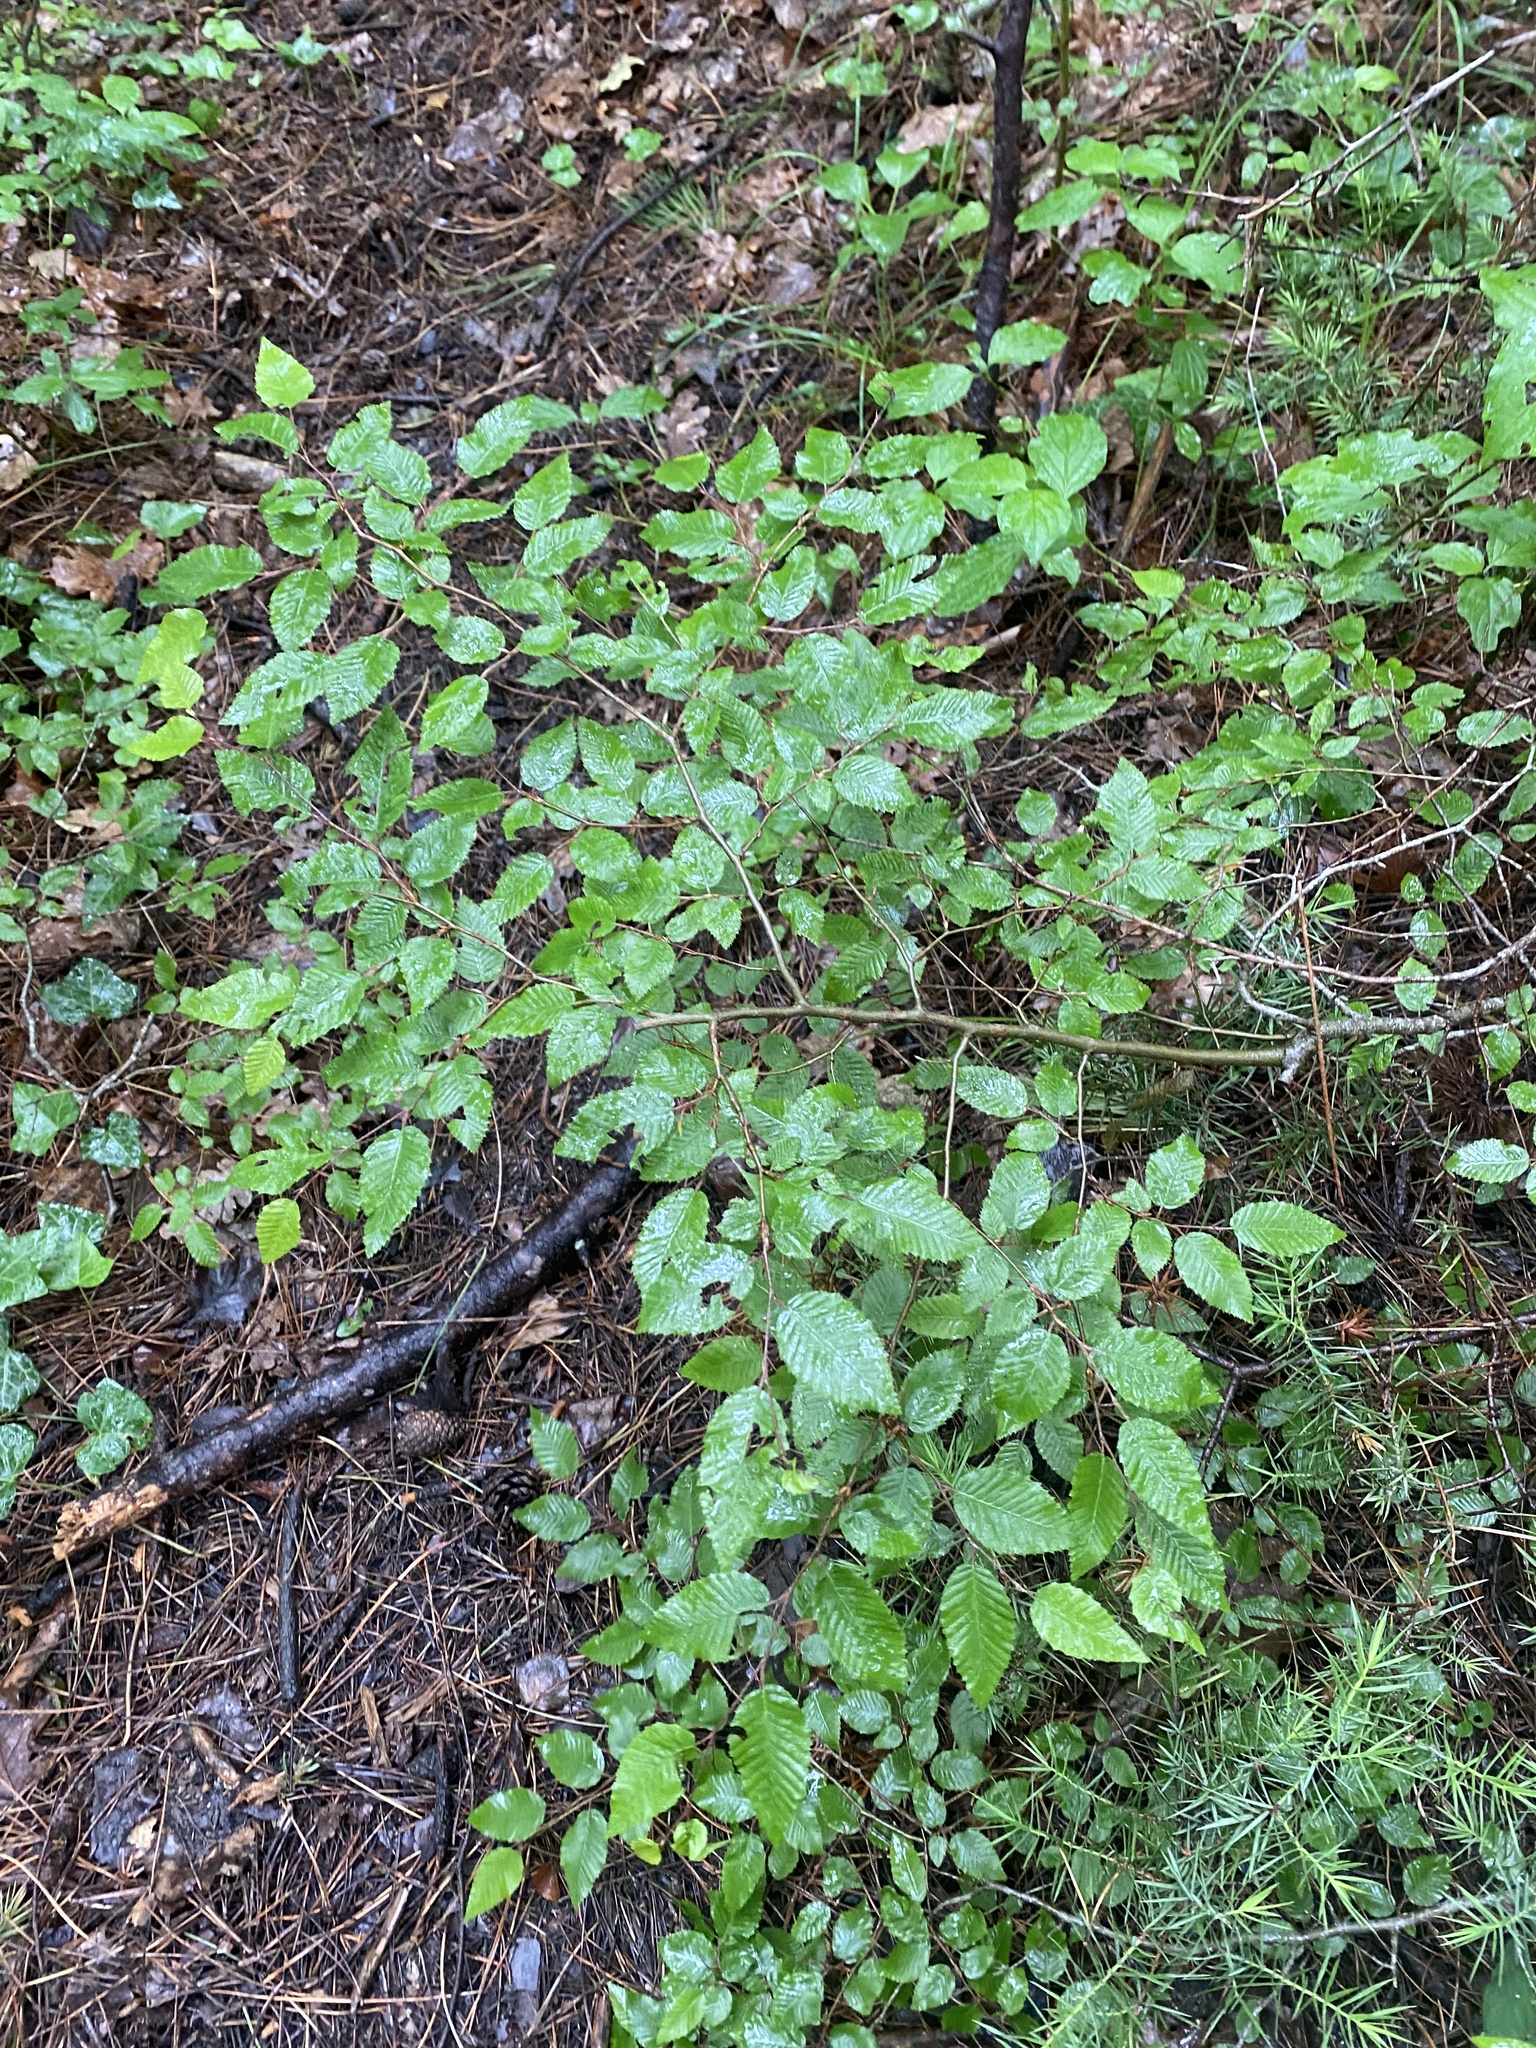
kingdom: Plantae
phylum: Tracheophyta
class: Magnoliopsida
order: Fagales
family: Betulaceae
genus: Carpinus
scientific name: Carpinus orientalis
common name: Eastern hornbeam
